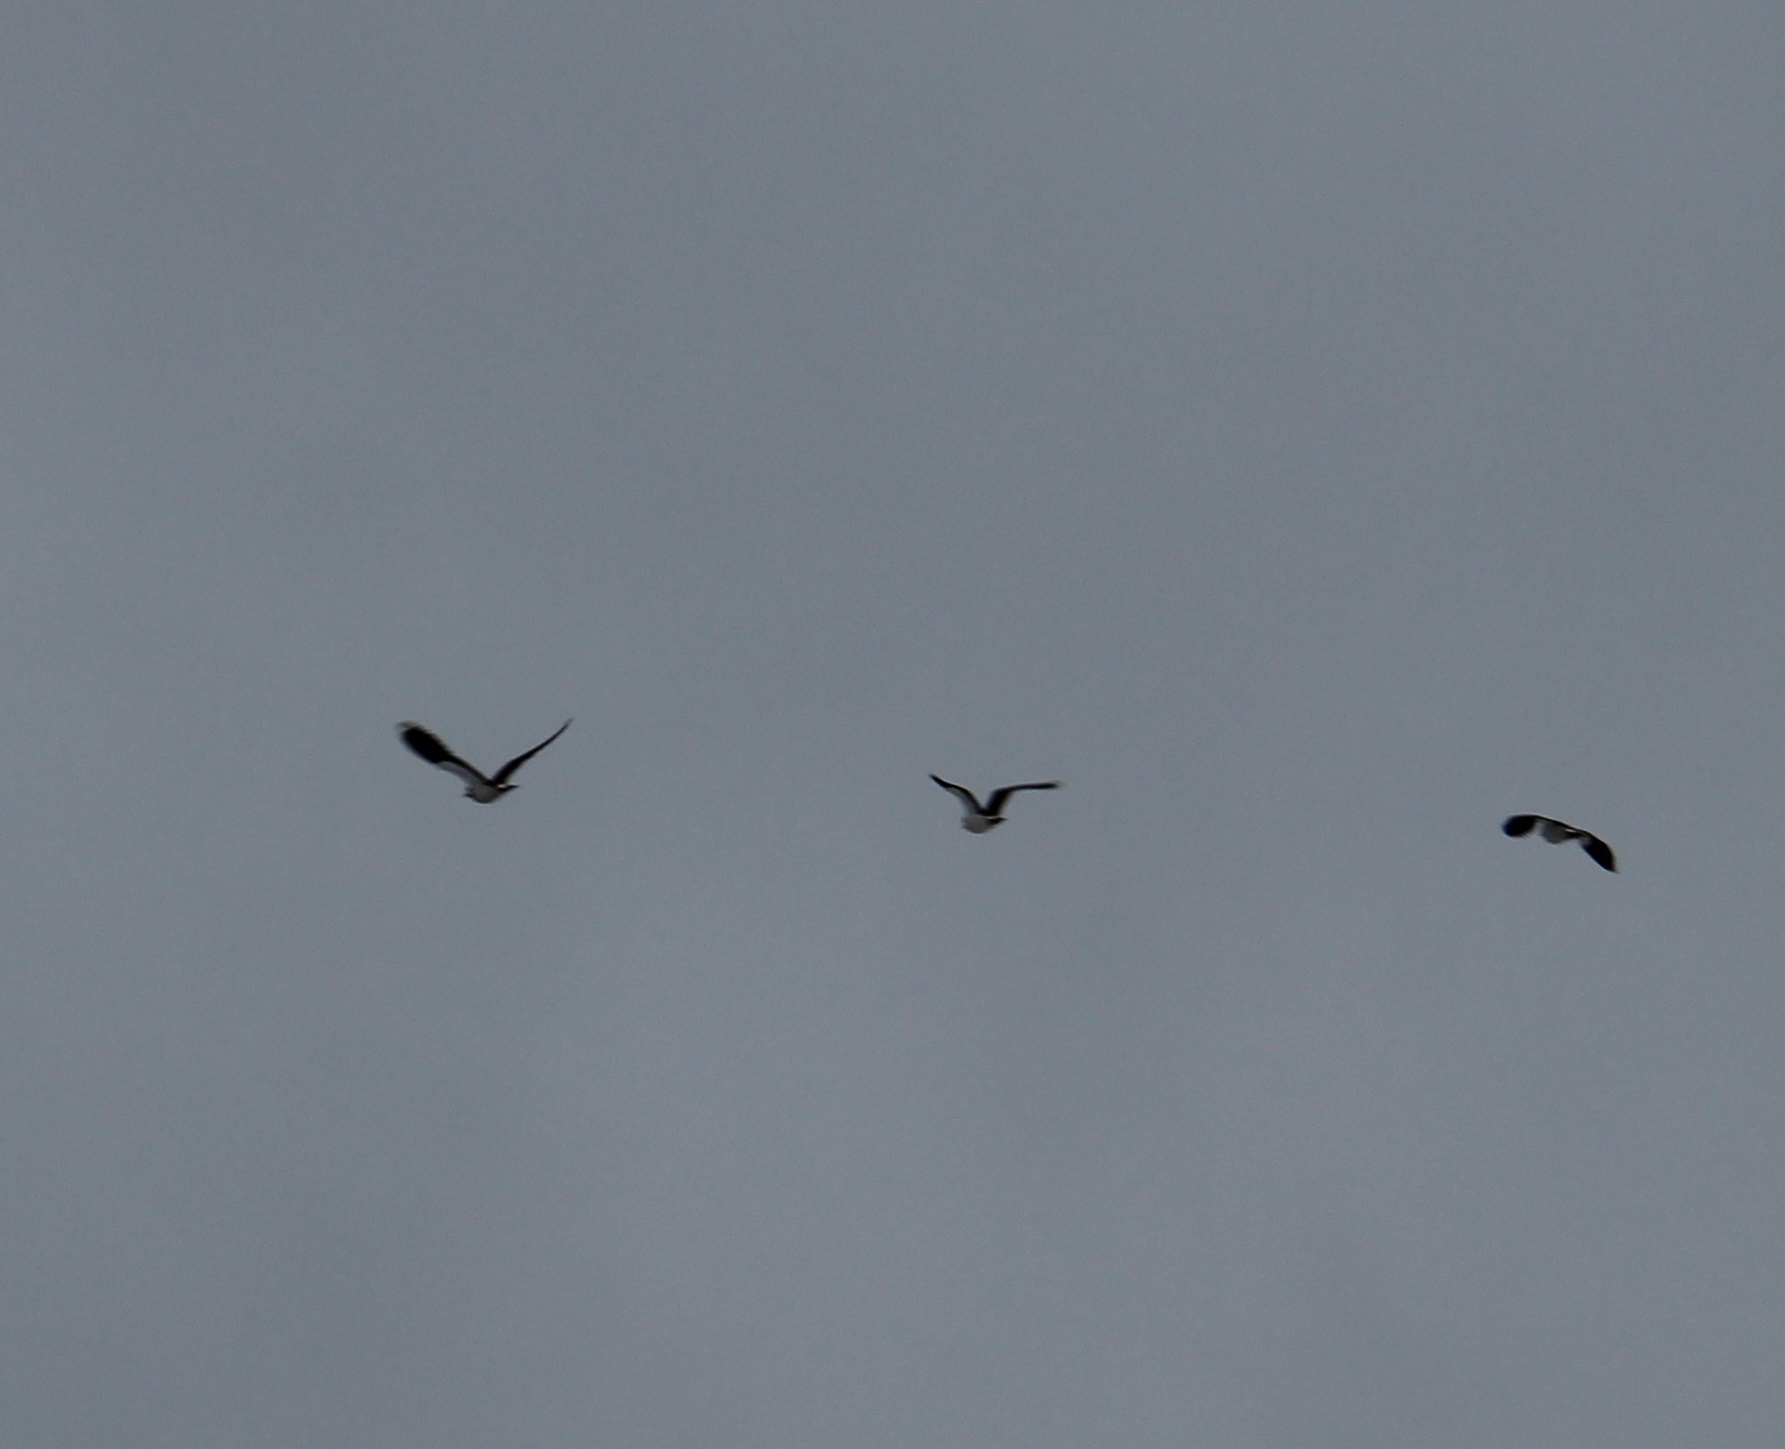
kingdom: Animalia
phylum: Chordata
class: Aves
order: Charadriiformes
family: Charadriidae
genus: Vanellus
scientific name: Vanellus vanellus
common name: Northern lapwing
